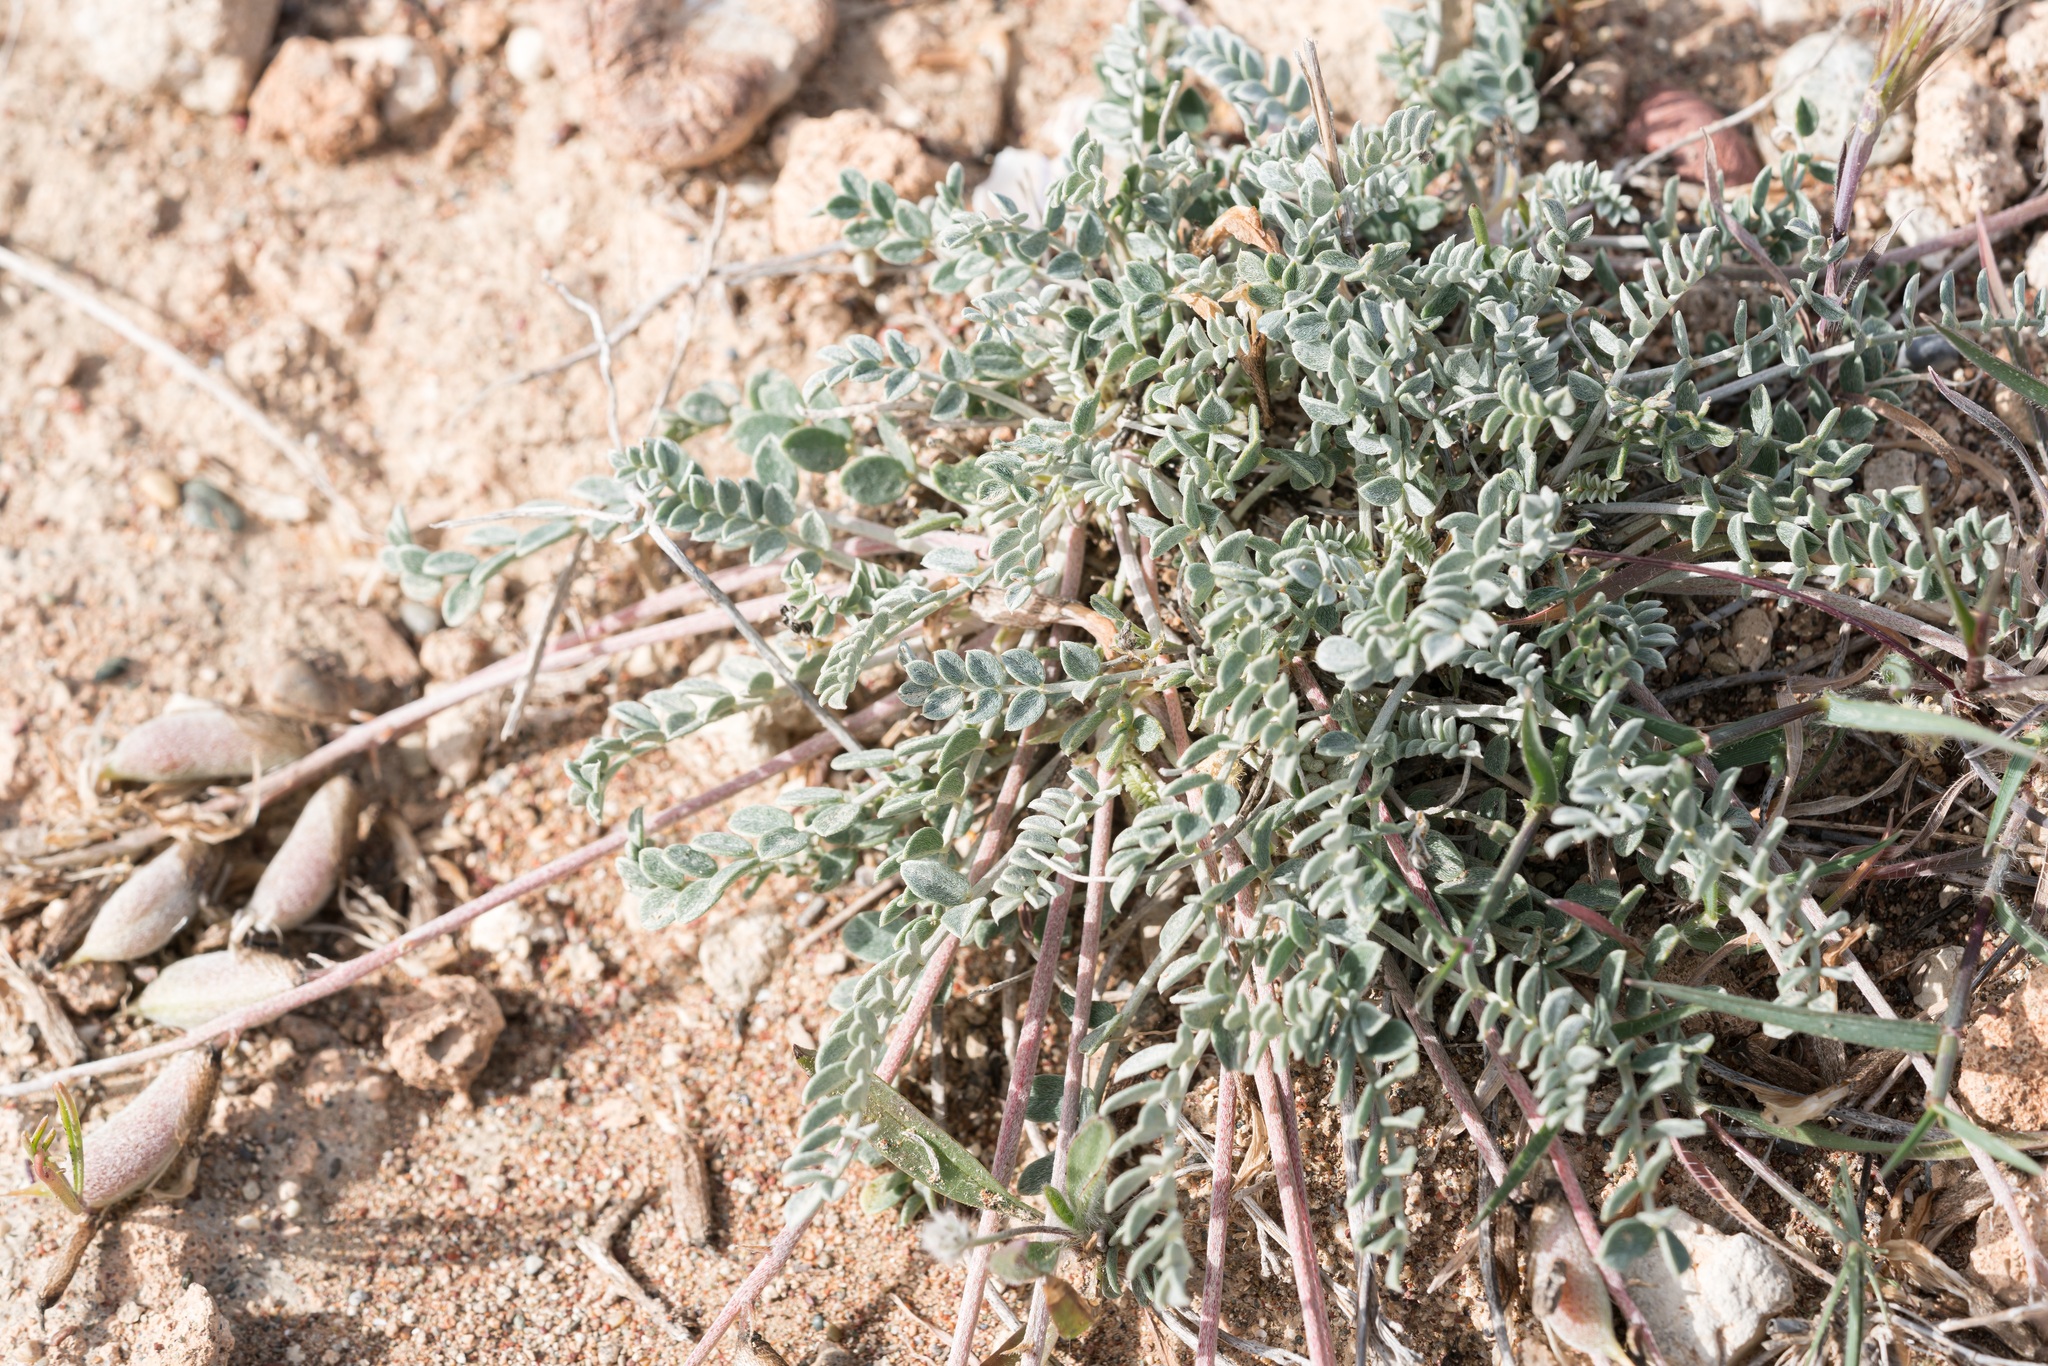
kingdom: Plantae
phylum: Tracheophyta
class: Magnoliopsida
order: Fabales
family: Fabaceae
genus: Astragalus
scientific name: Astragalus spruneri
